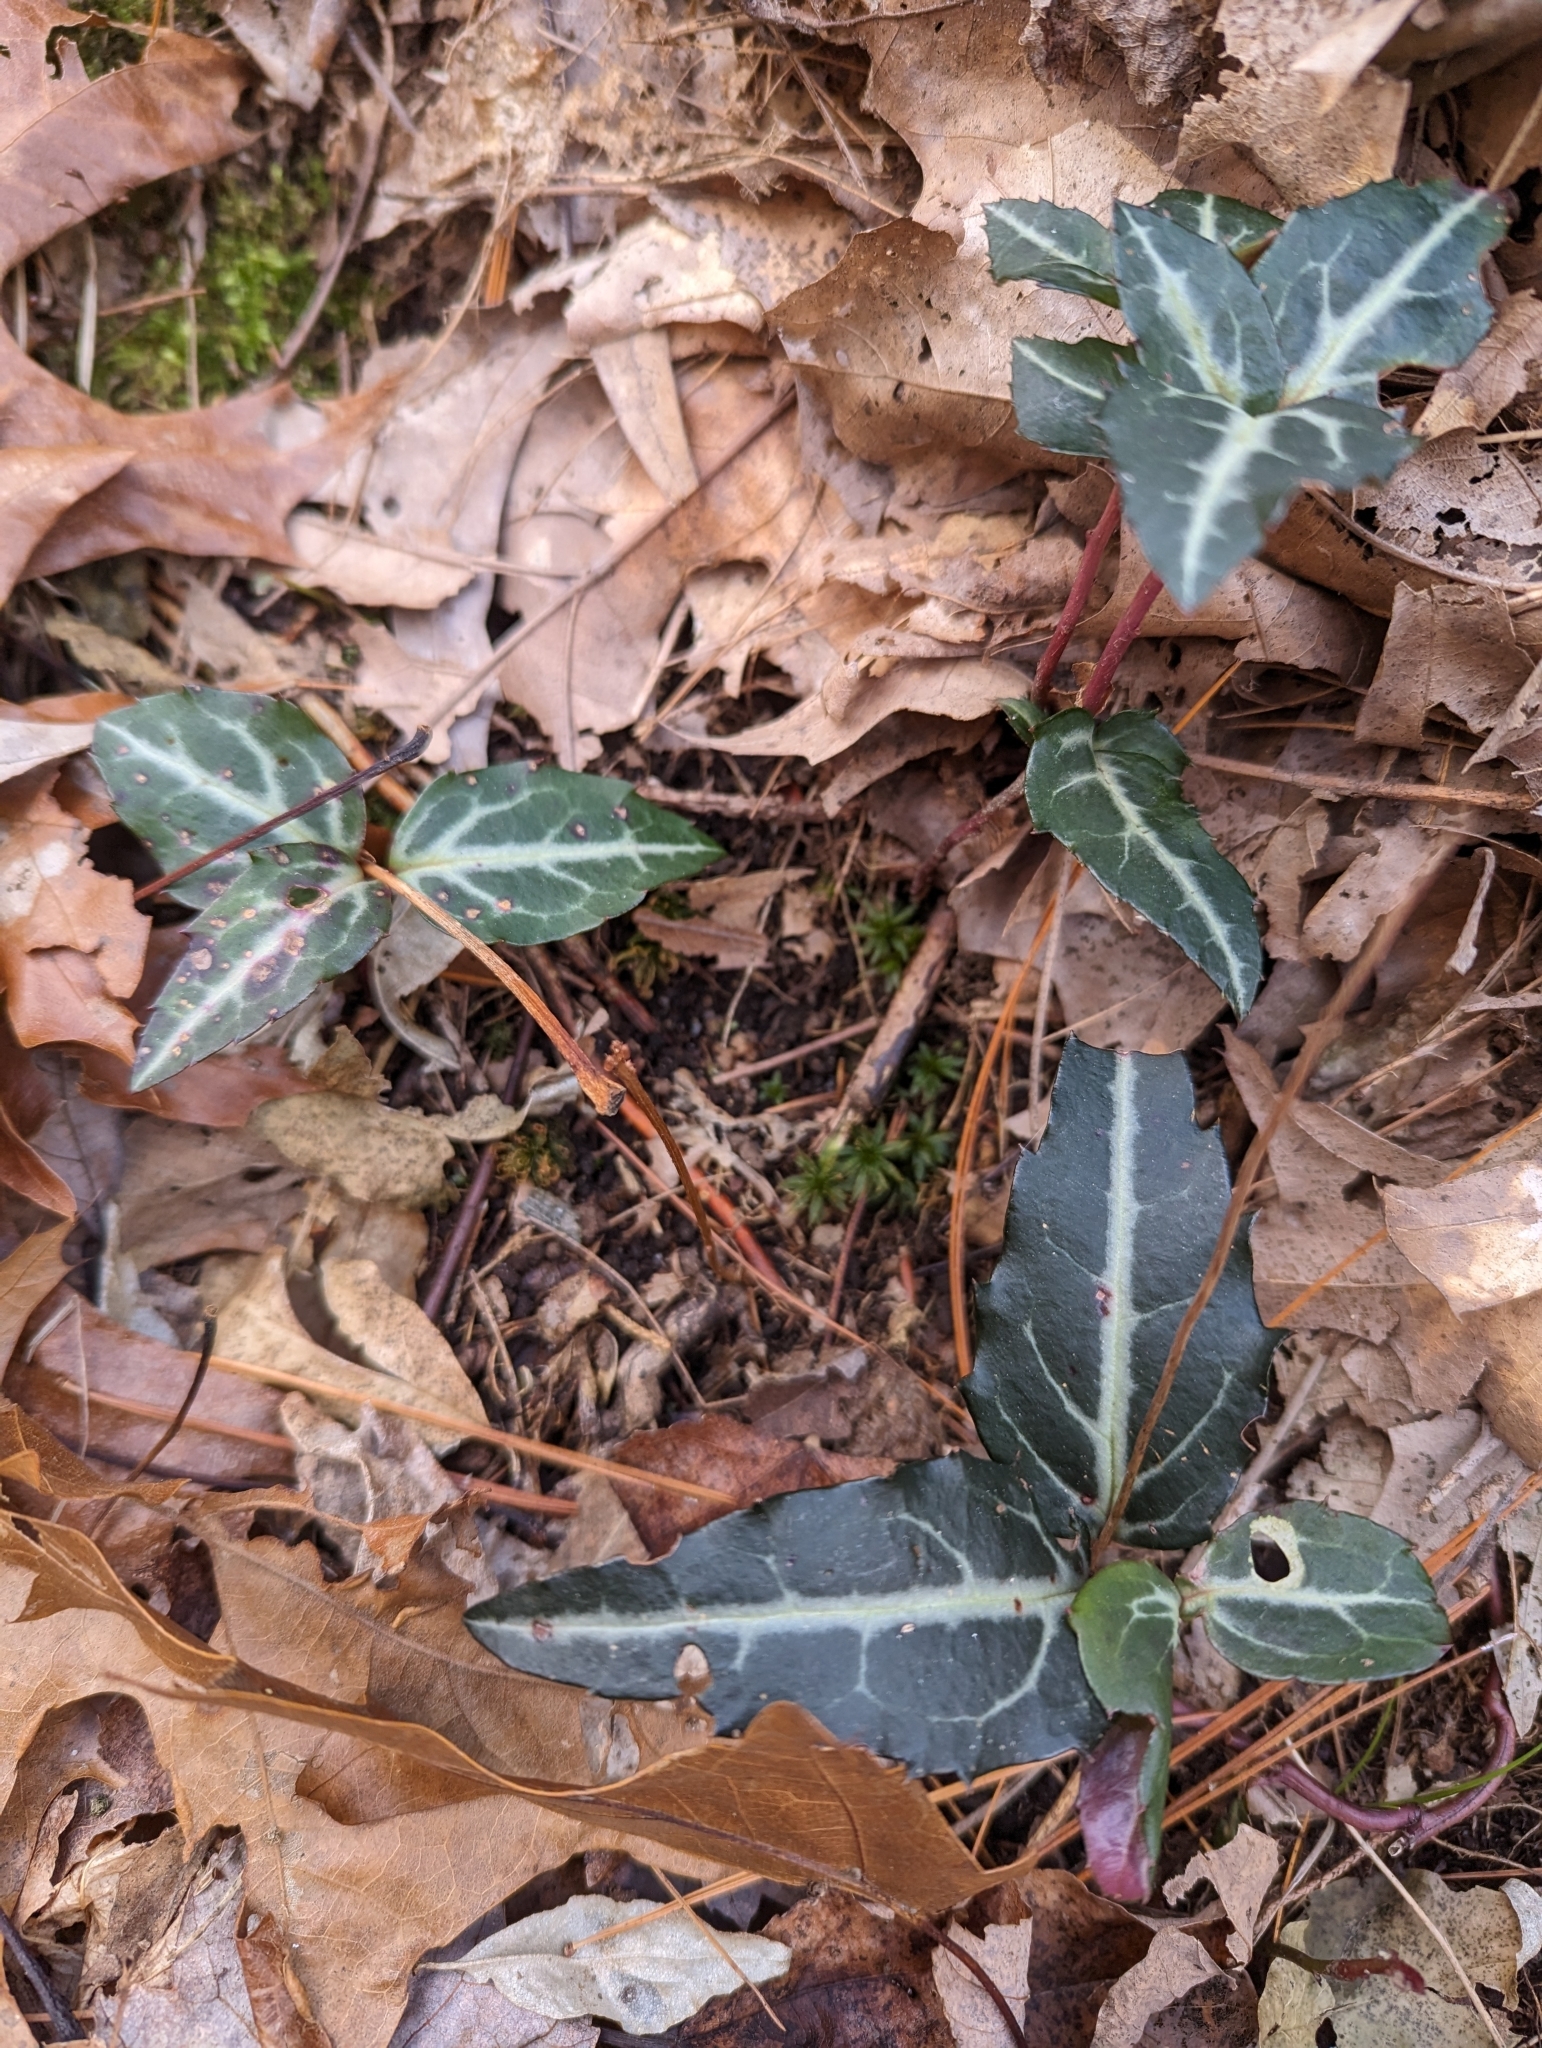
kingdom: Plantae
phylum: Tracheophyta
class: Magnoliopsida
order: Ericales
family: Ericaceae
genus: Chimaphila
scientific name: Chimaphila maculata
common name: Spotted pipsissewa
